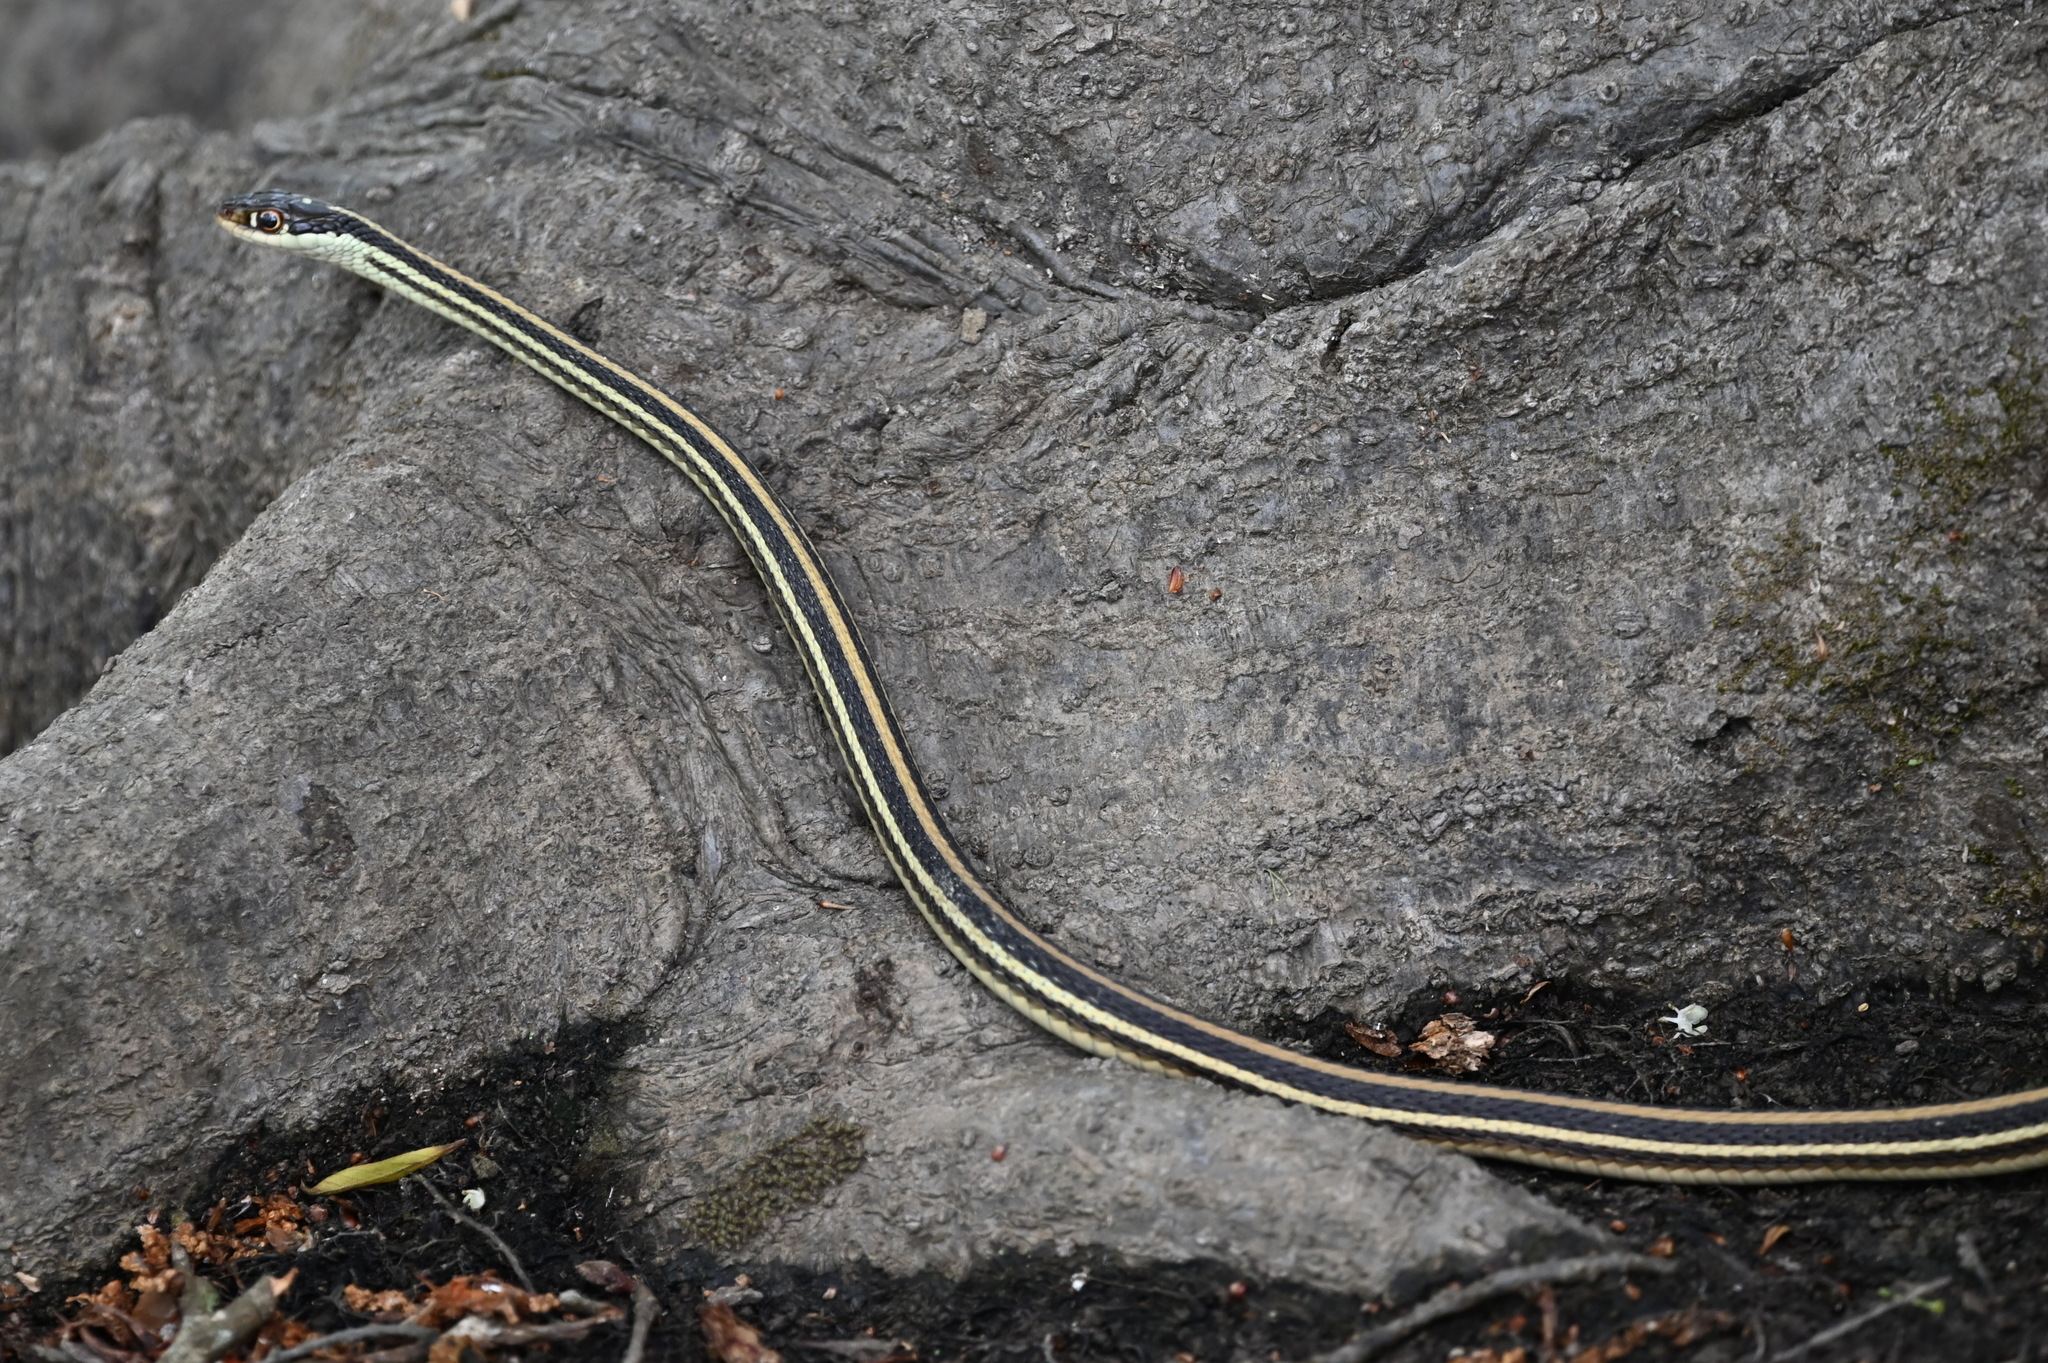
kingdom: Animalia
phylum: Chordata
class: Squamata
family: Colubridae
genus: Thamnophis
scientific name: Thamnophis proximus
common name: Western ribbon snake
